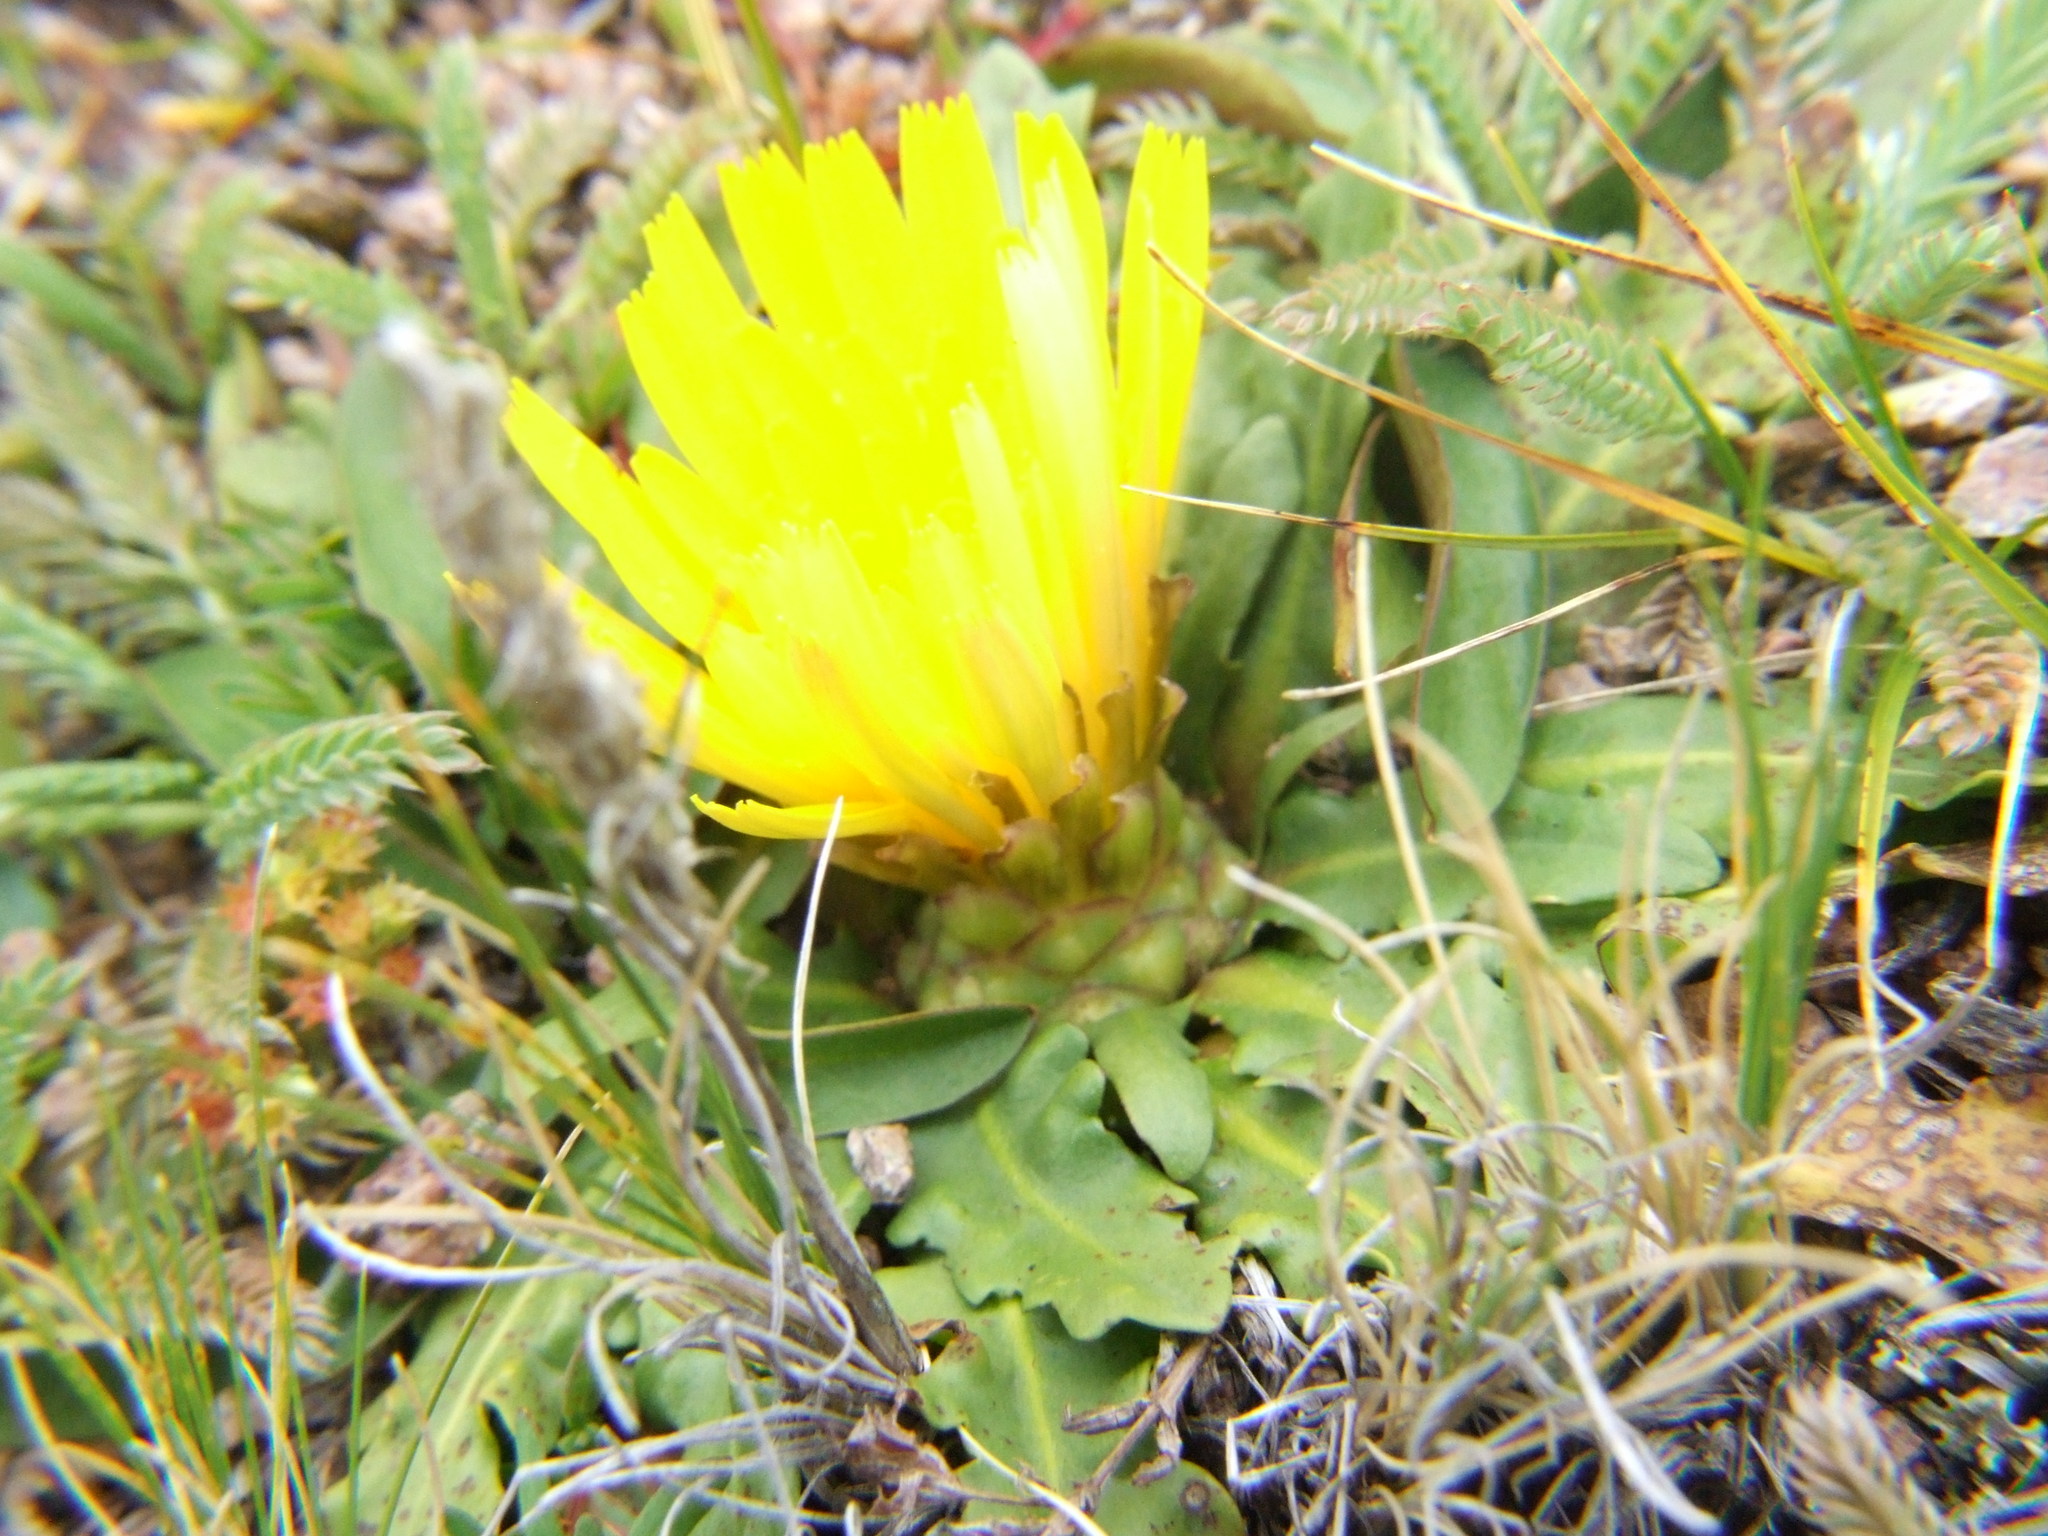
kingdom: Plantae
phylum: Tracheophyta
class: Magnoliopsida
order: Asterales
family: Asteraceae
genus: Hypochaeris
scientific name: Hypochaeris meyeniana
